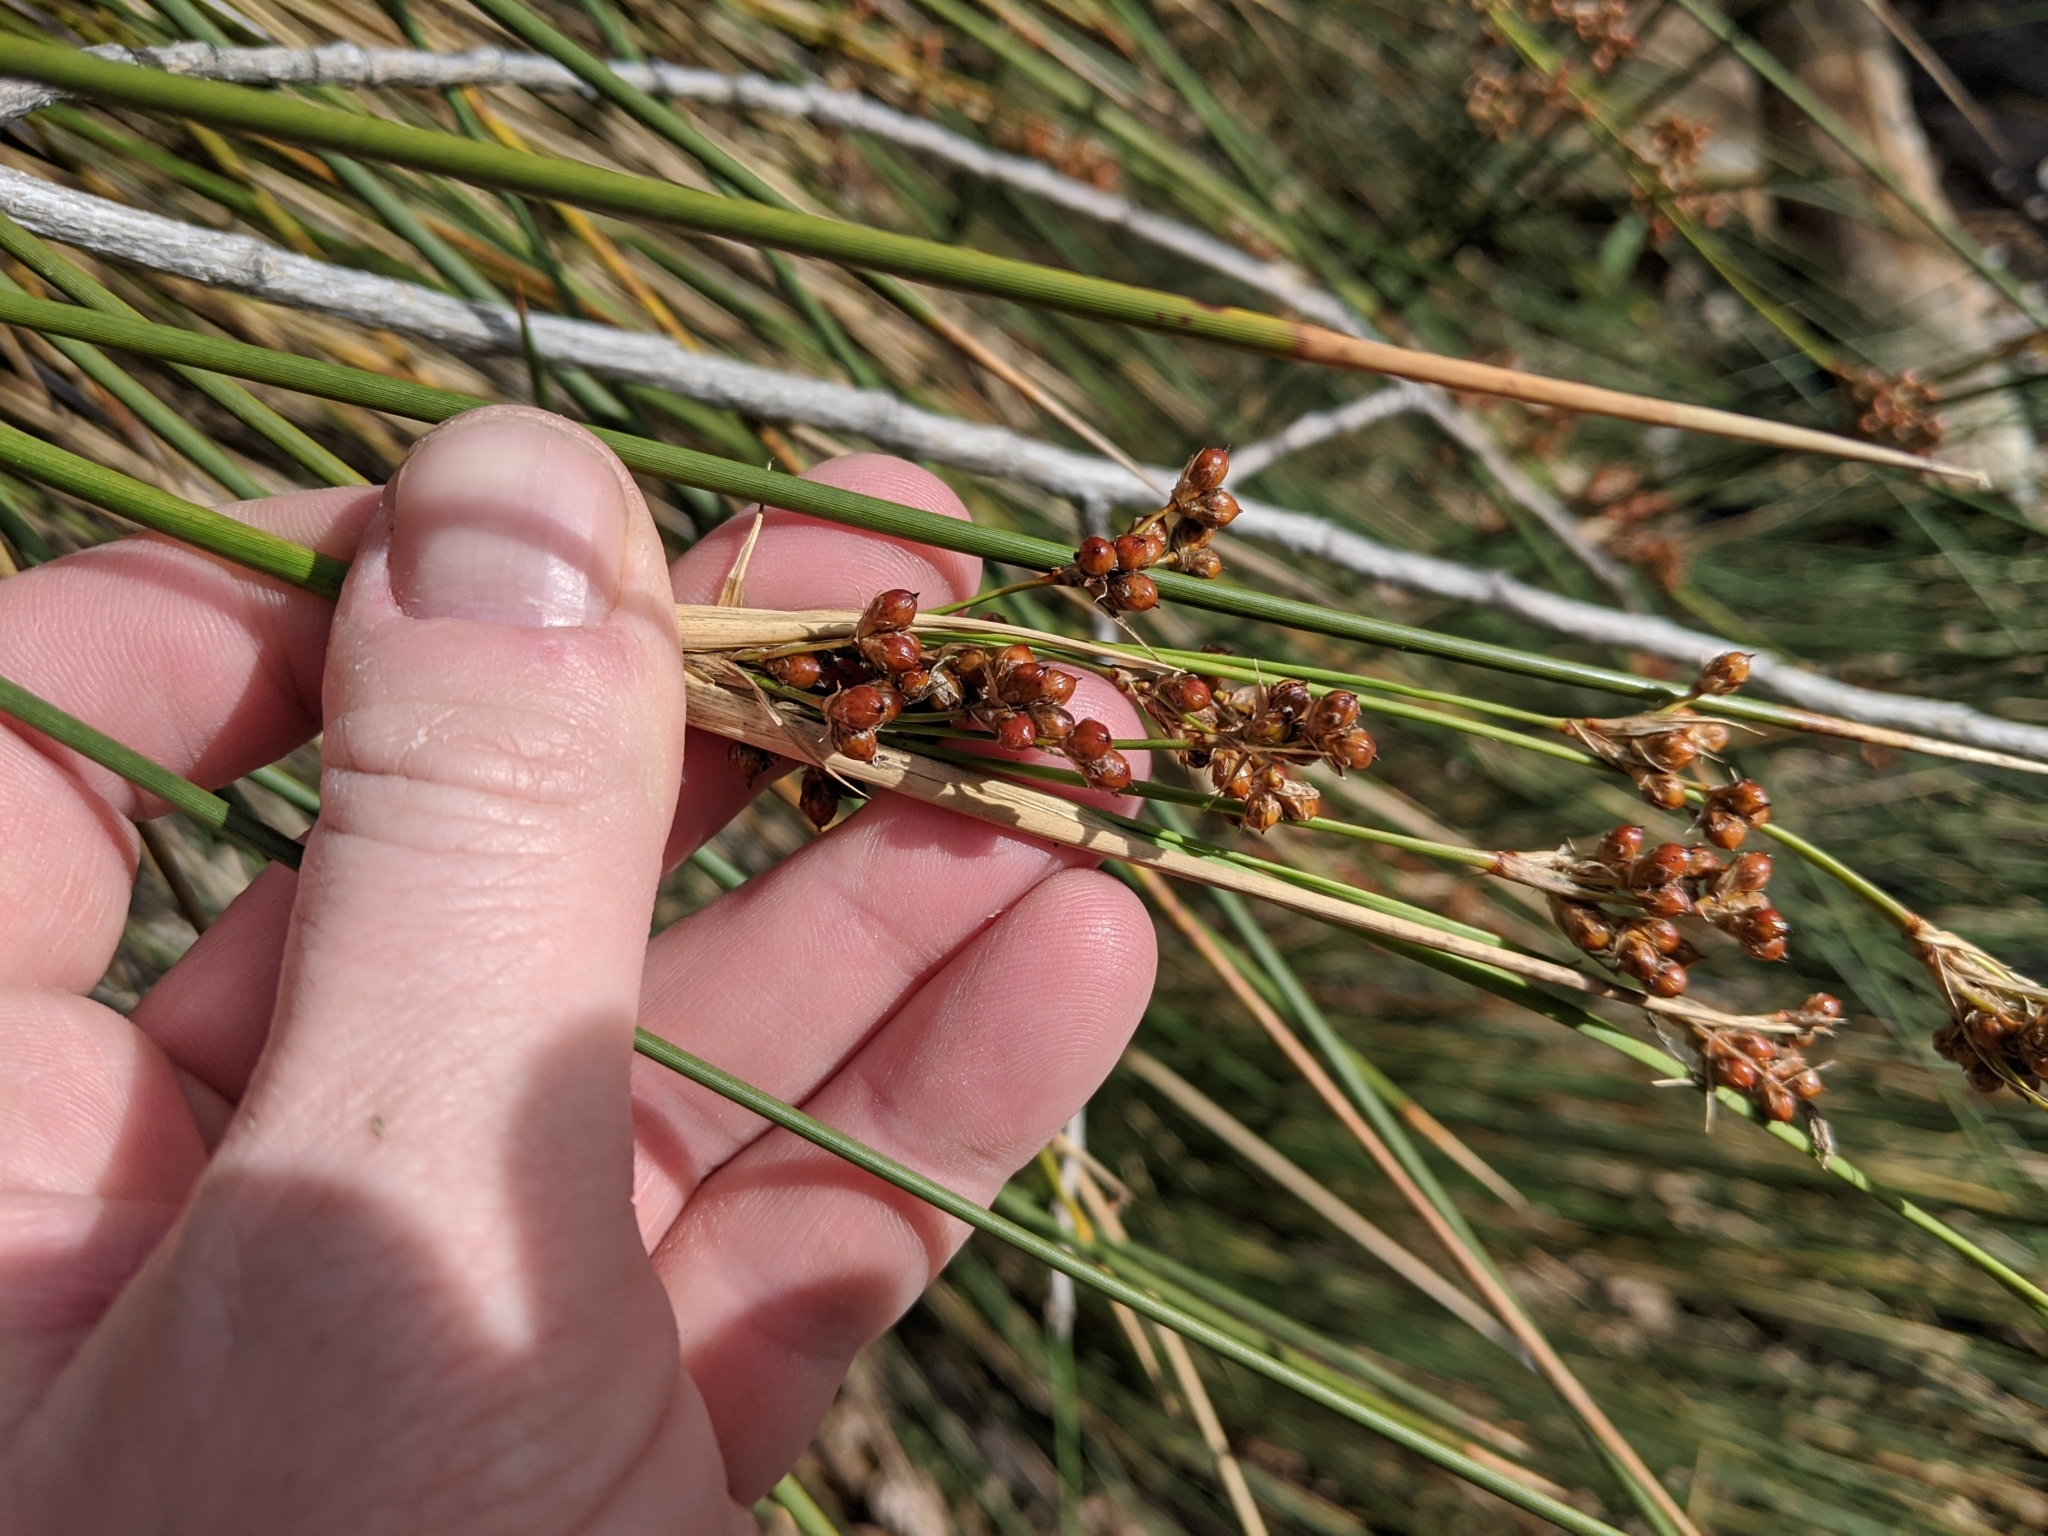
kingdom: Plantae
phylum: Tracheophyta
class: Liliopsida
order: Poales
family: Juncaceae
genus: Juncus
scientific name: Juncus acutus
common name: Sharp rush
